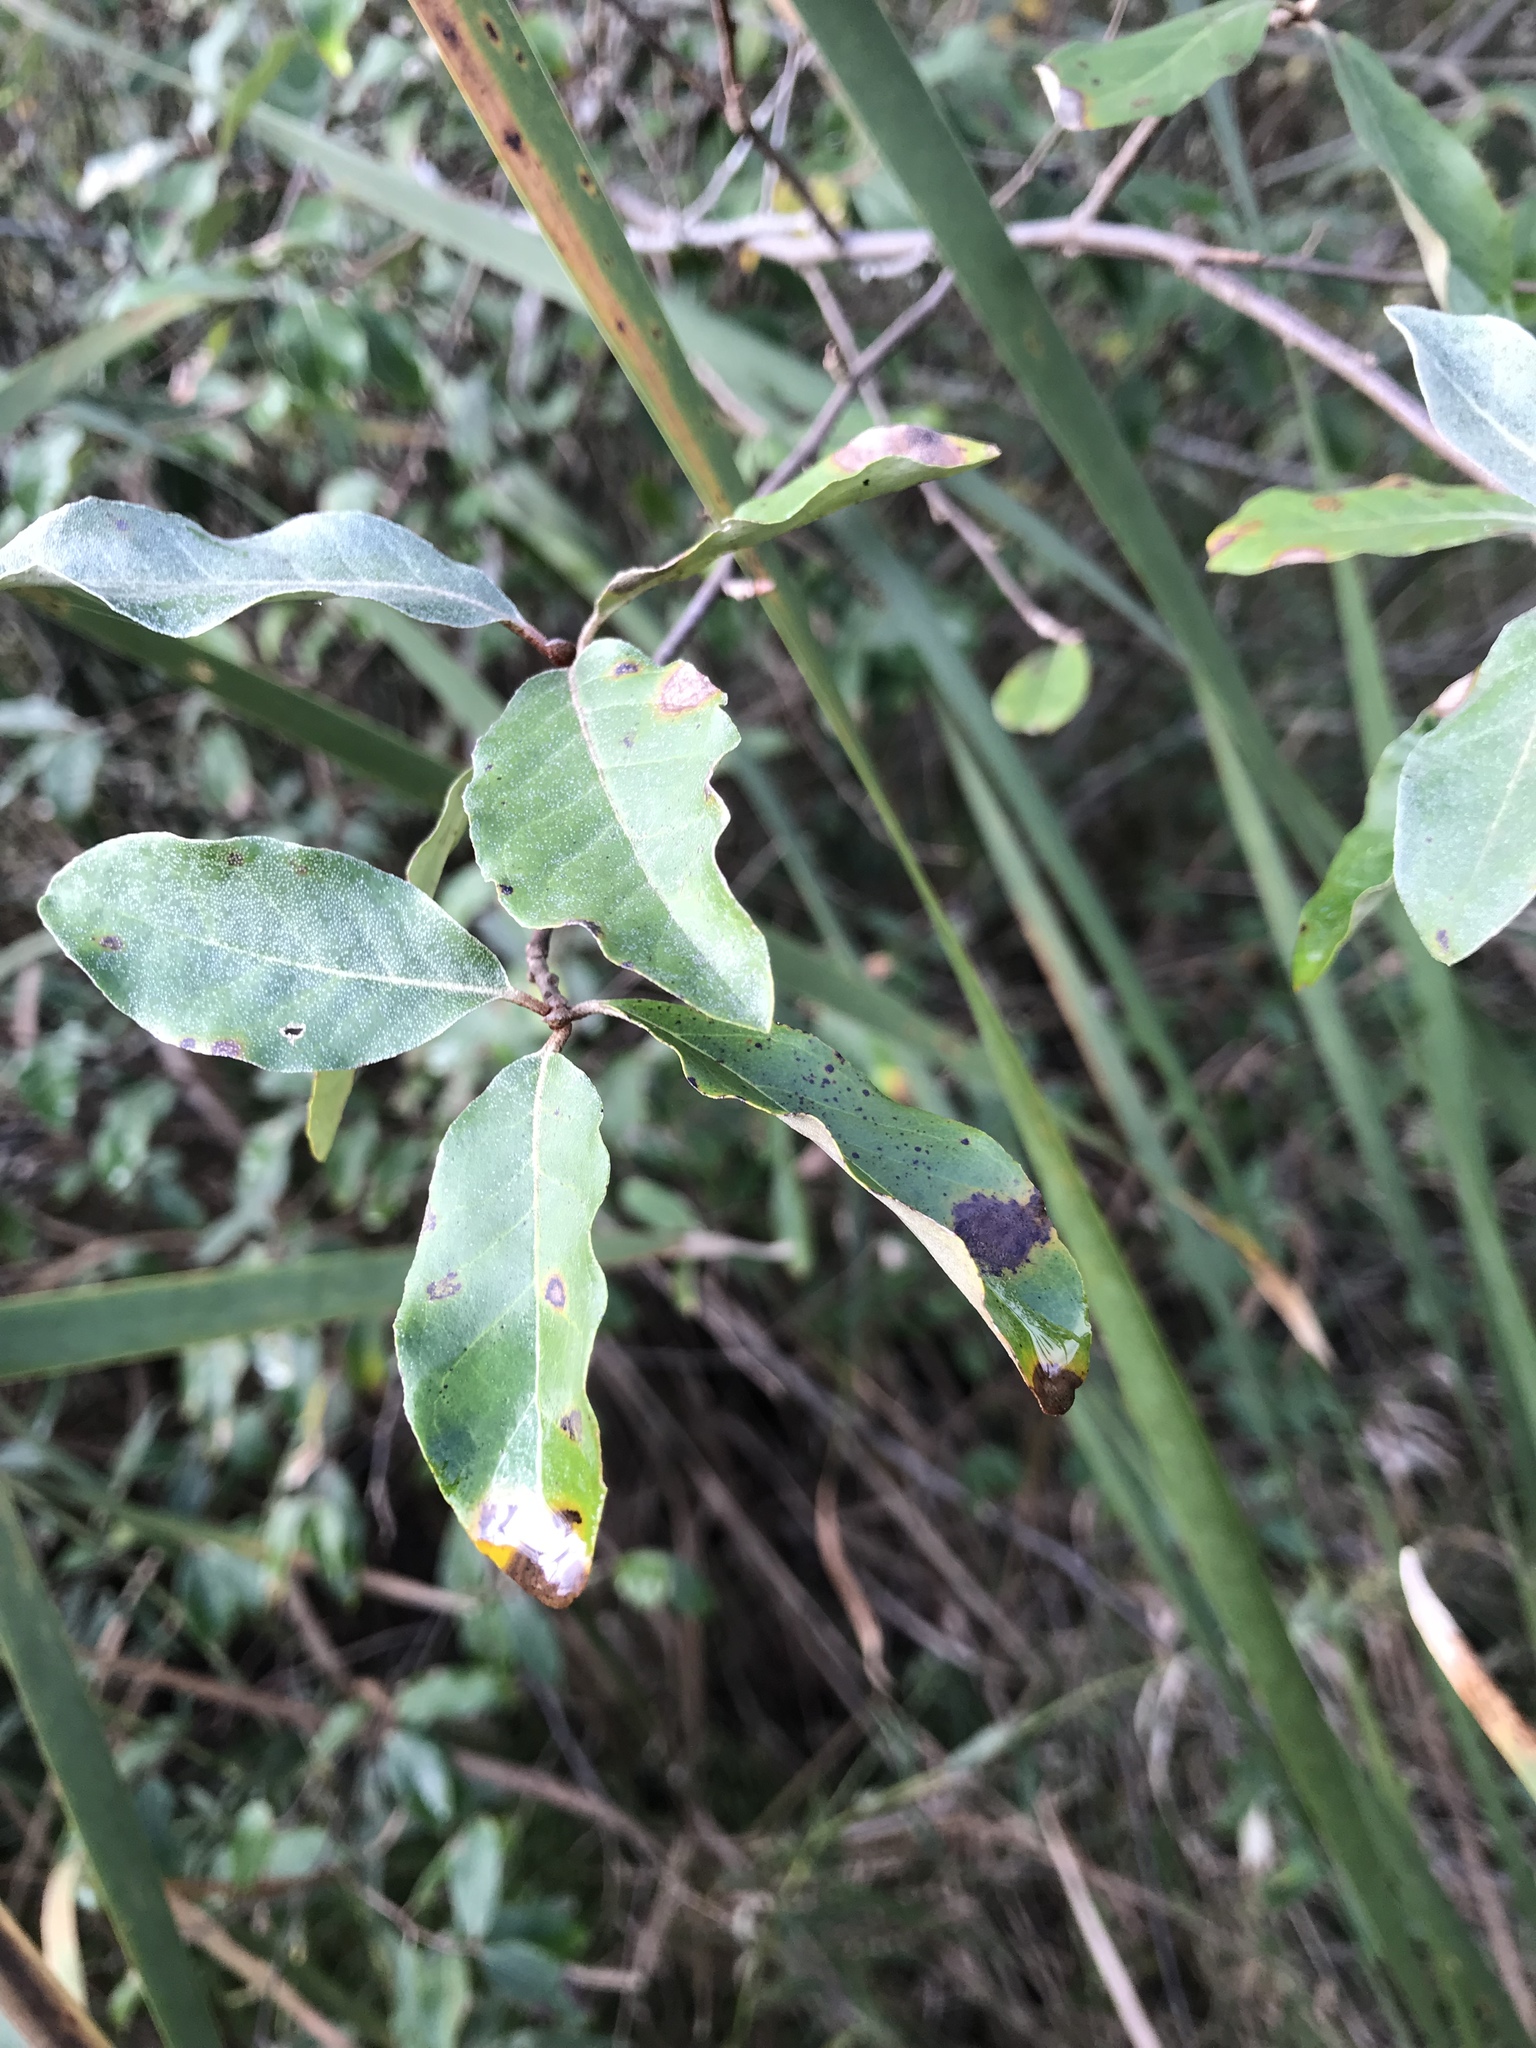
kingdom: Plantae
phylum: Tracheophyta
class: Magnoliopsida
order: Rosales
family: Elaeagnaceae
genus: Elaeagnus
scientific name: Elaeagnus umbellata
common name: Autumn olive
